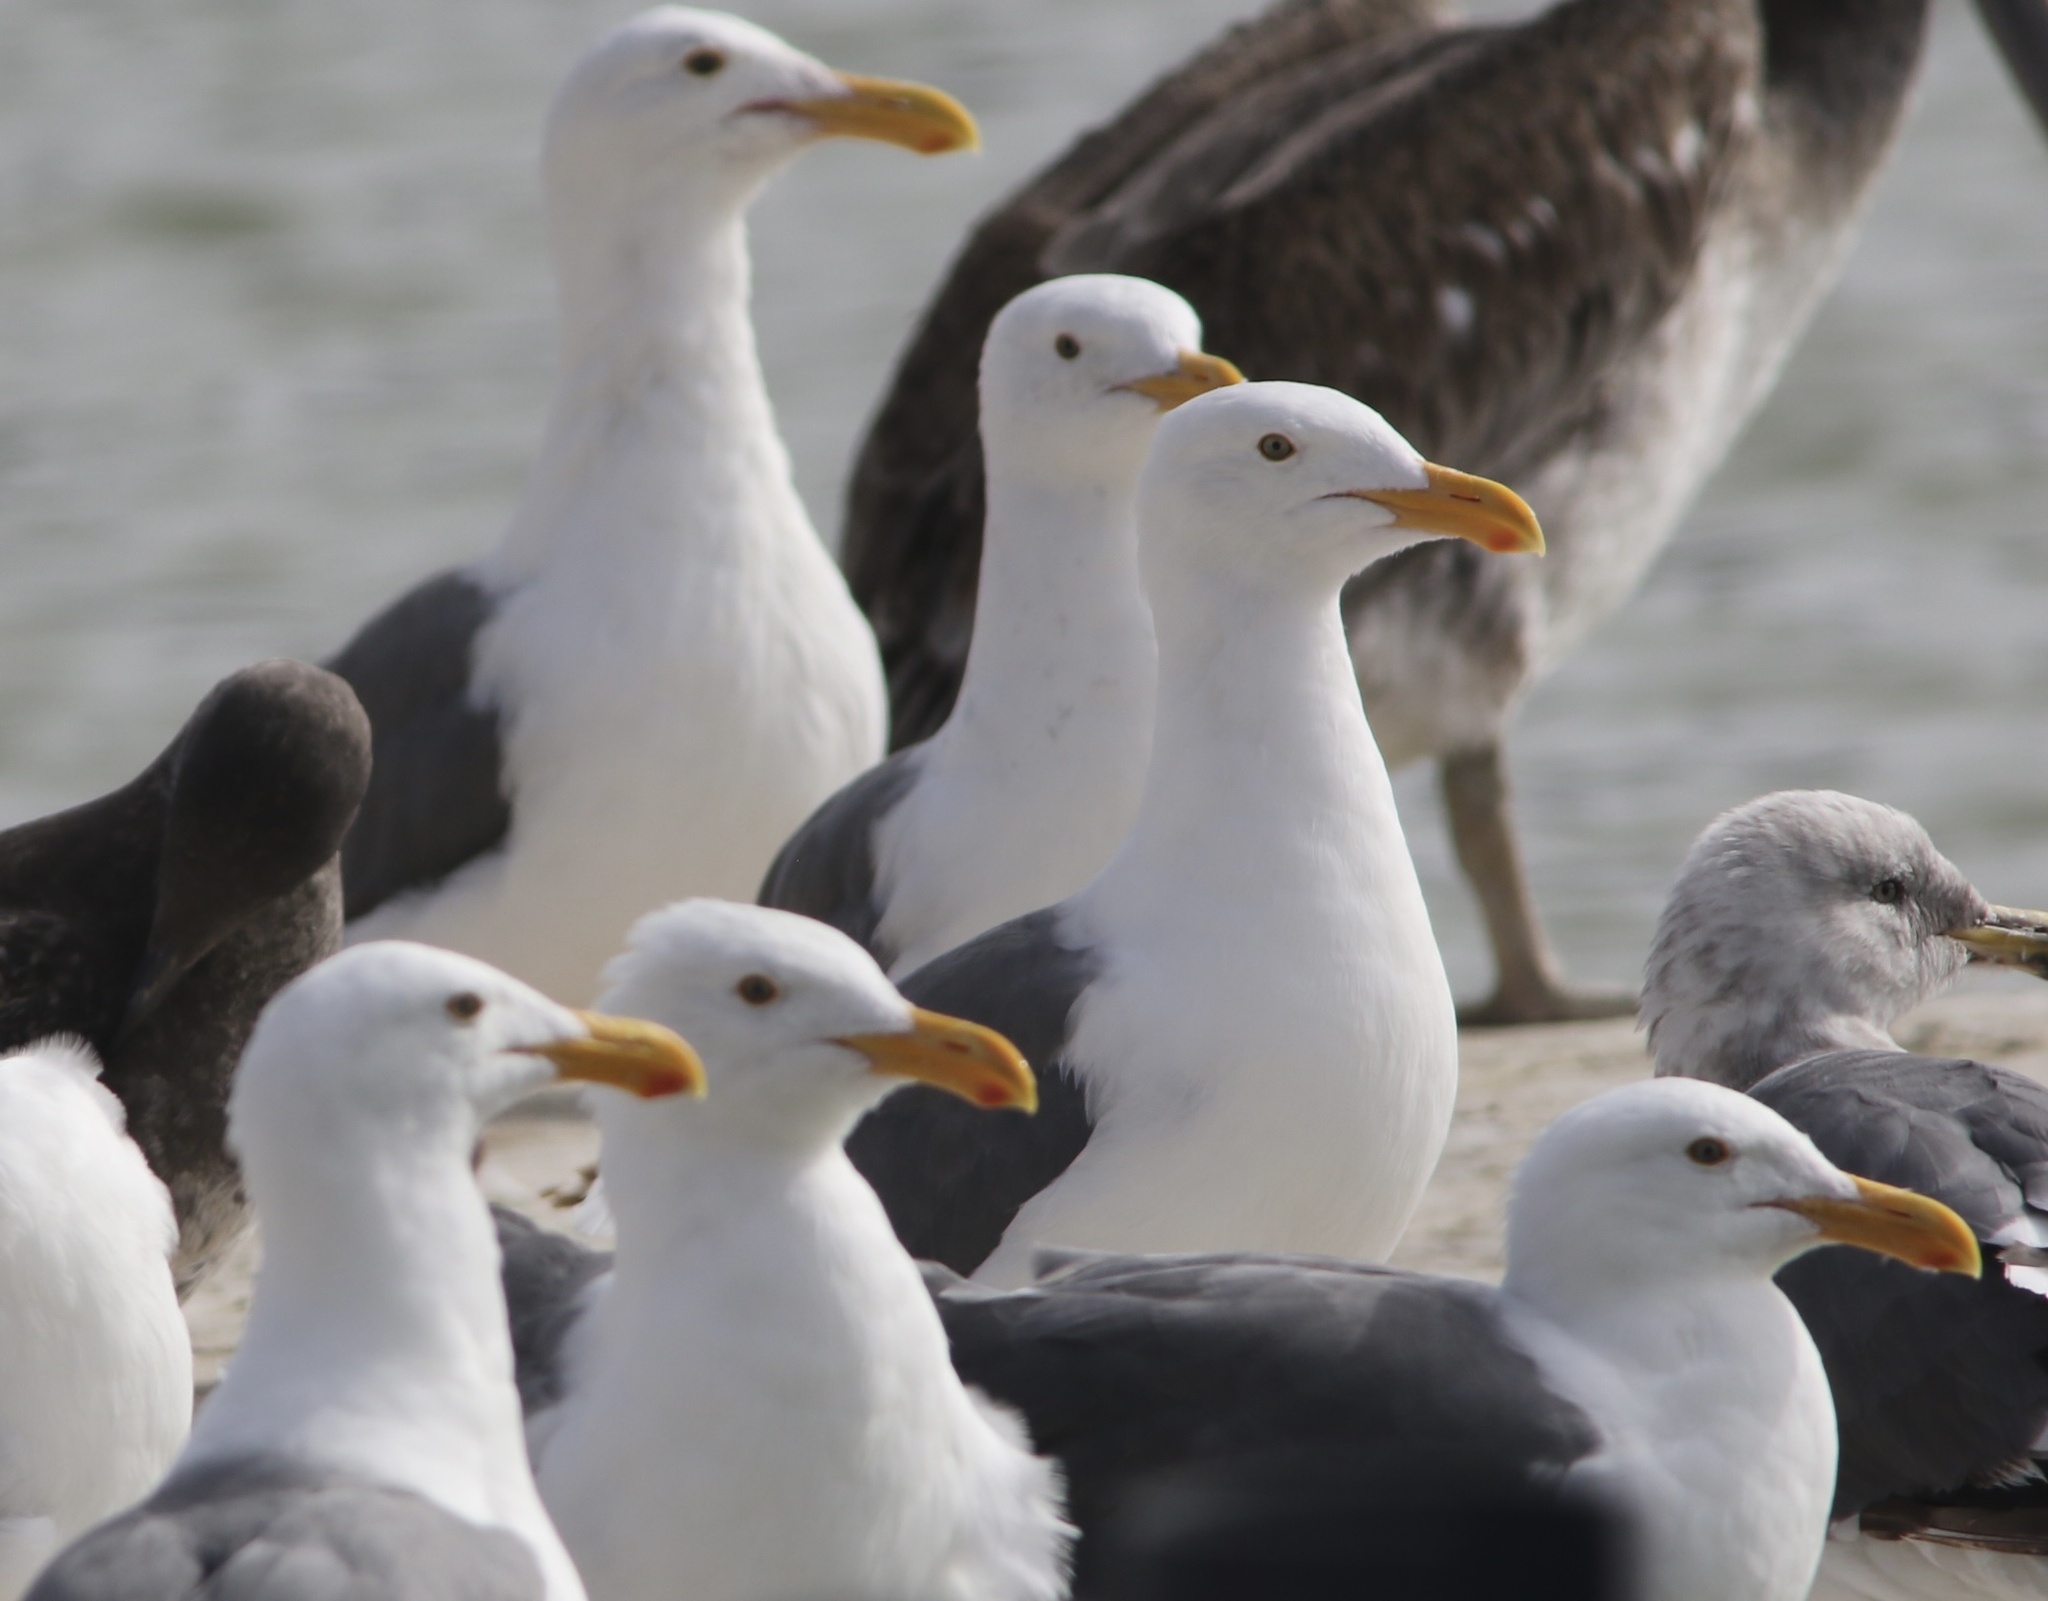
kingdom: Animalia
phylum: Chordata
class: Aves
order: Charadriiformes
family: Laridae
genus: Larus
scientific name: Larus occidentalis
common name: Western gull
